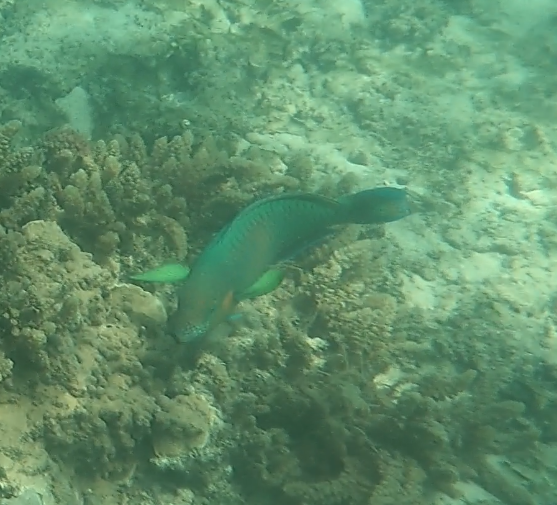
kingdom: Animalia
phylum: Chordata
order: Perciformes
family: Scaridae
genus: Scarus
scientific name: Scarus rivulatus
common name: Surf parrotfish
